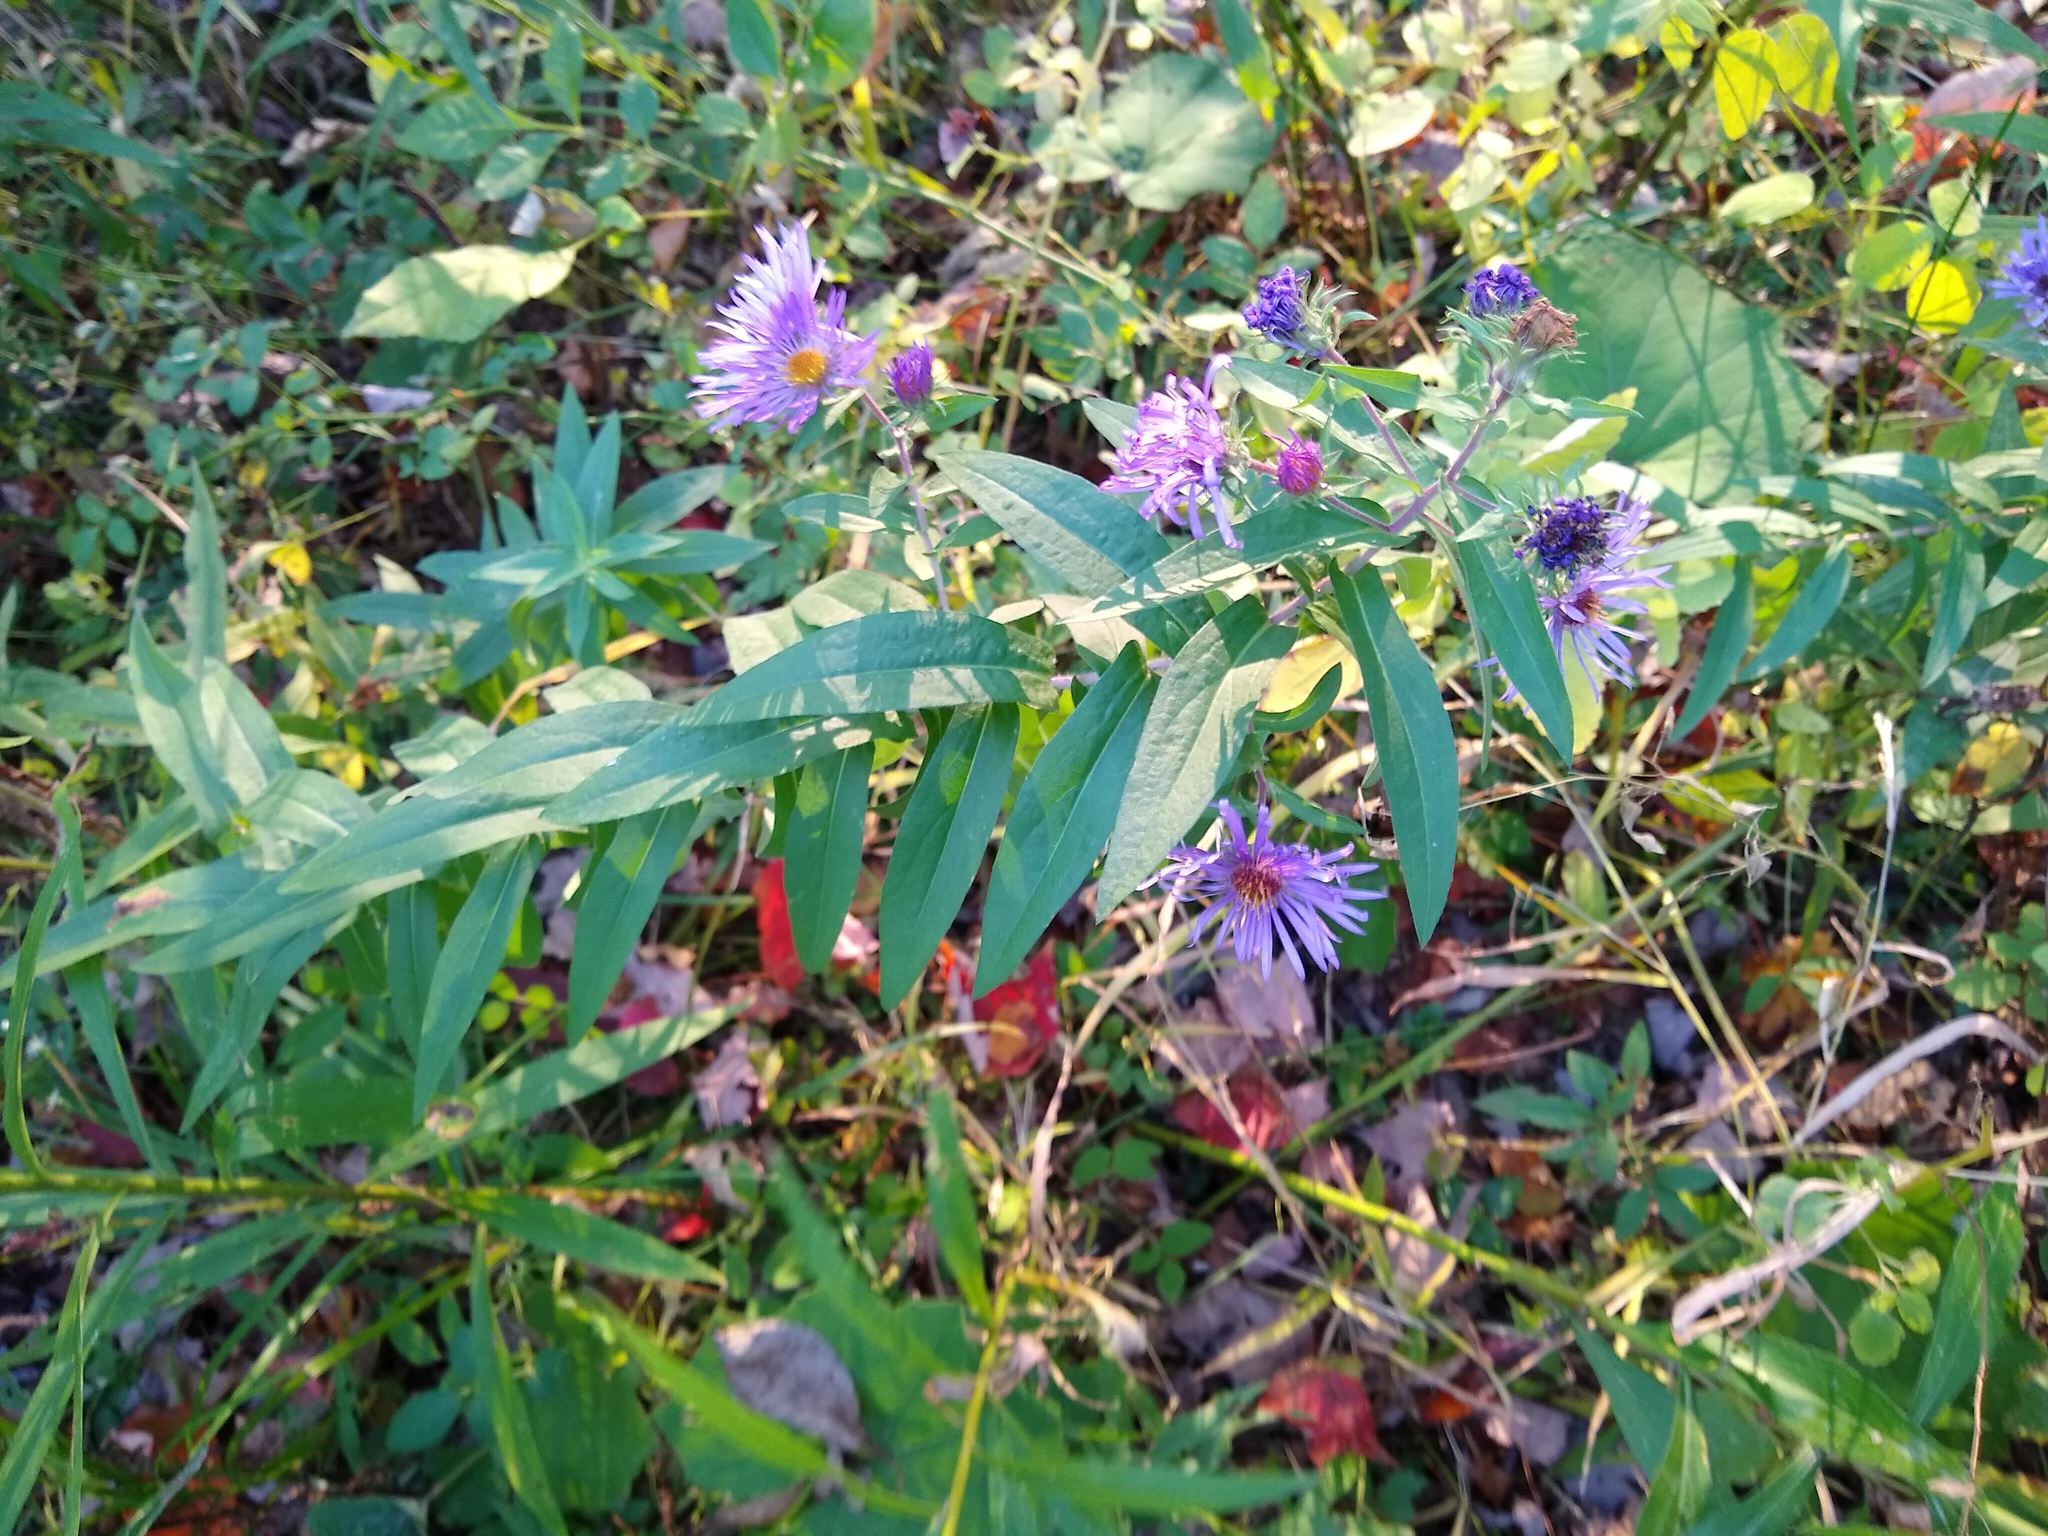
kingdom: Plantae
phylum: Tracheophyta
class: Magnoliopsida
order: Asterales
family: Asteraceae
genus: Symphyotrichum
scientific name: Symphyotrichum novae-angliae
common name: Michaelmas daisy
